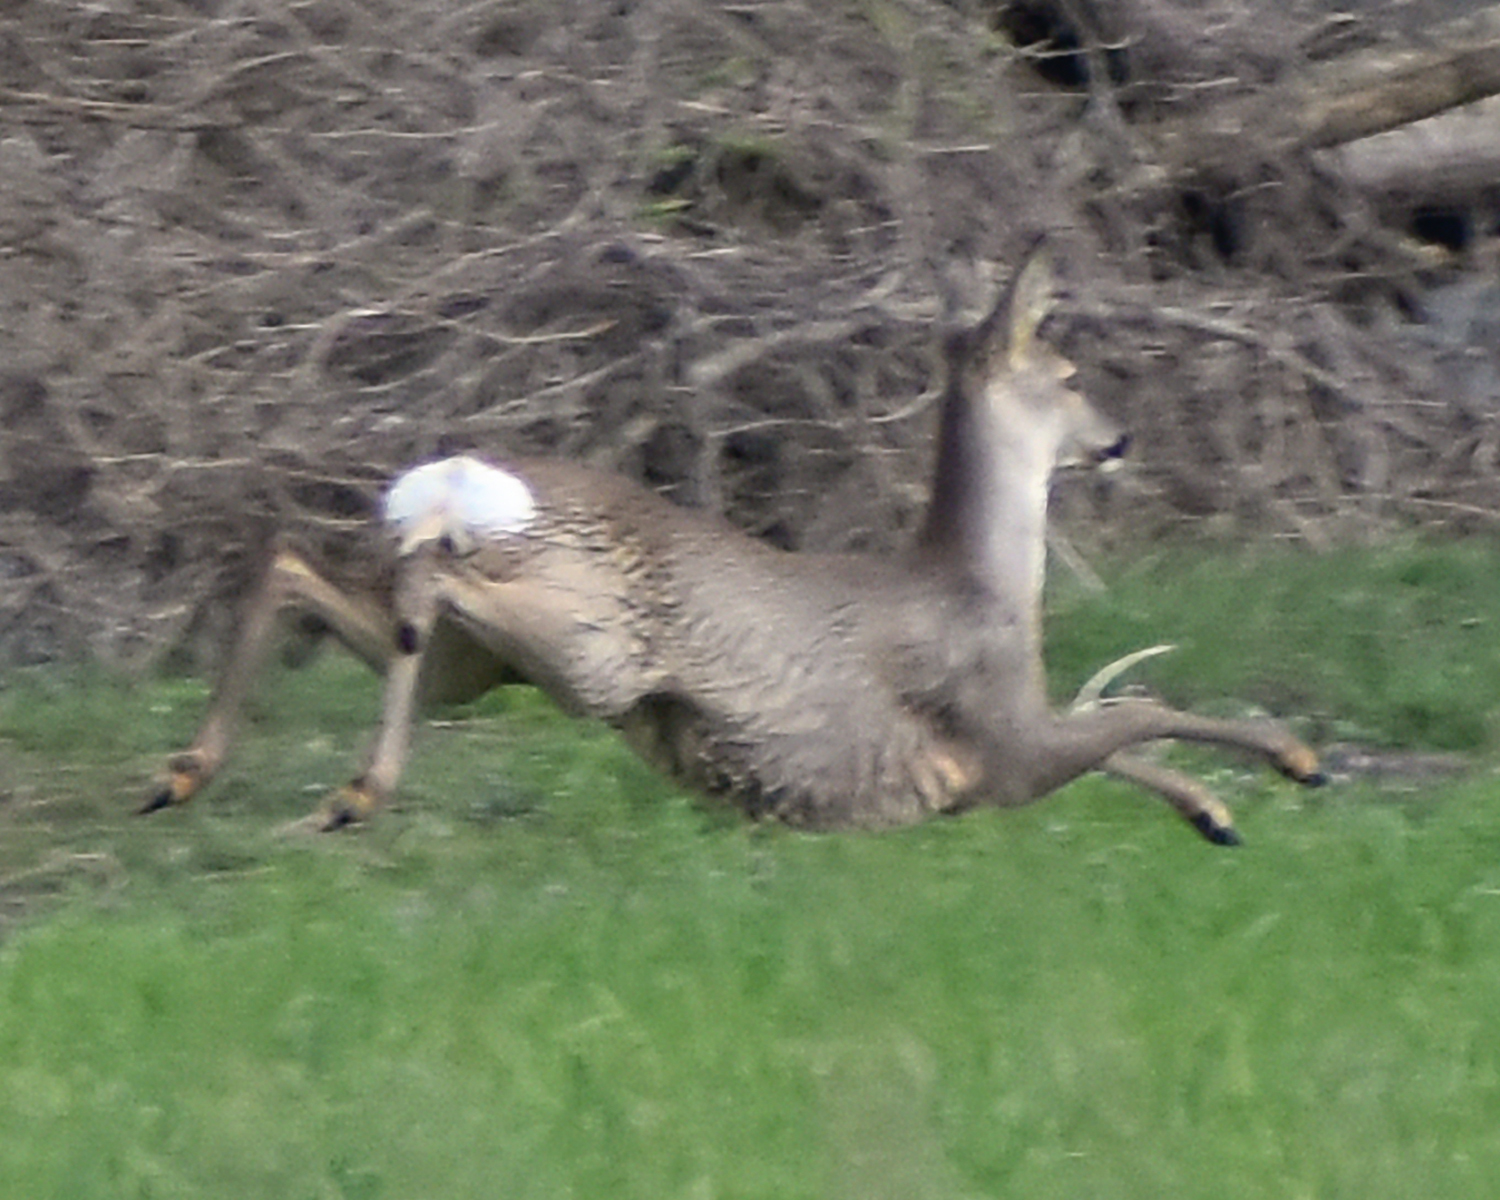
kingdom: Animalia
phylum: Chordata
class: Mammalia
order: Artiodactyla
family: Cervidae
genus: Capreolus
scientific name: Capreolus capreolus
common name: Western roe deer
